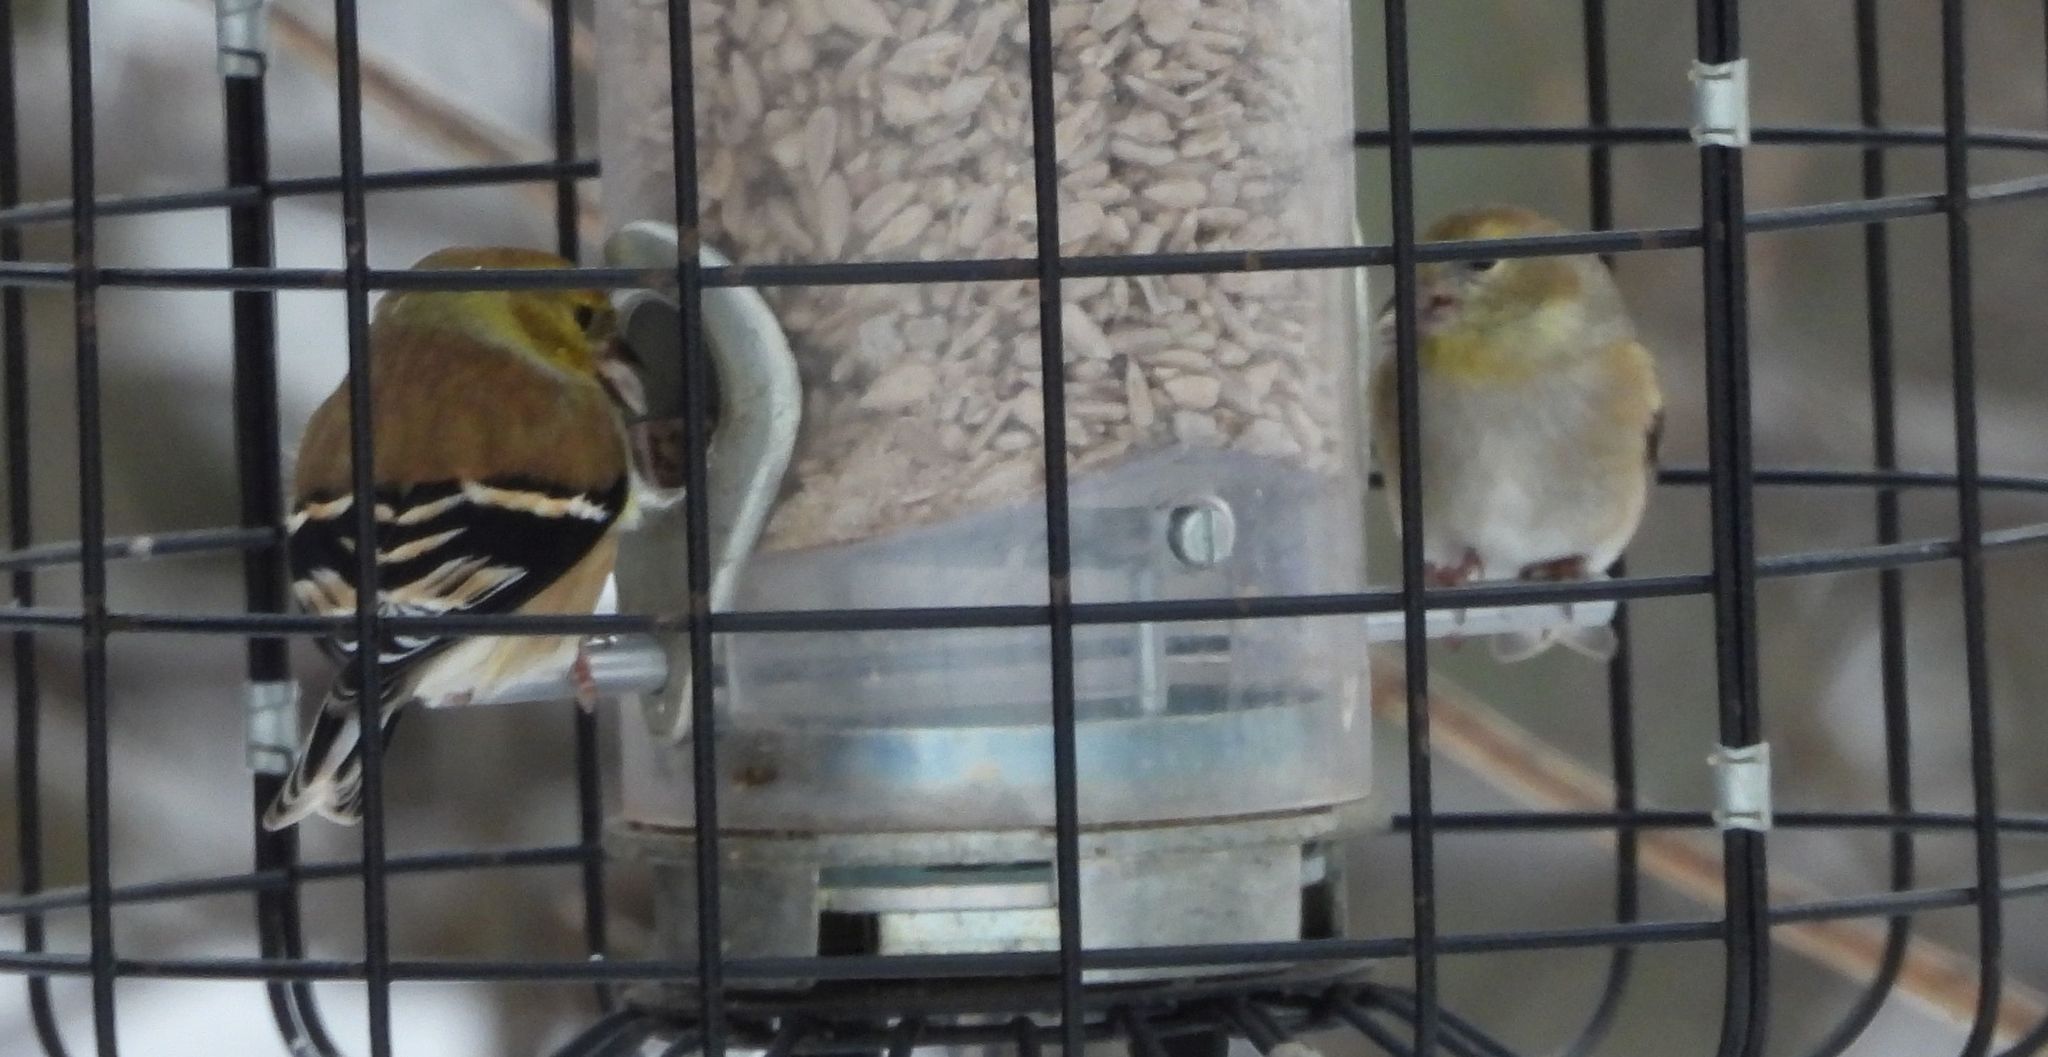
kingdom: Animalia
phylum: Chordata
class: Aves
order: Passeriformes
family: Fringillidae
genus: Spinus
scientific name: Spinus tristis
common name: American goldfinch
